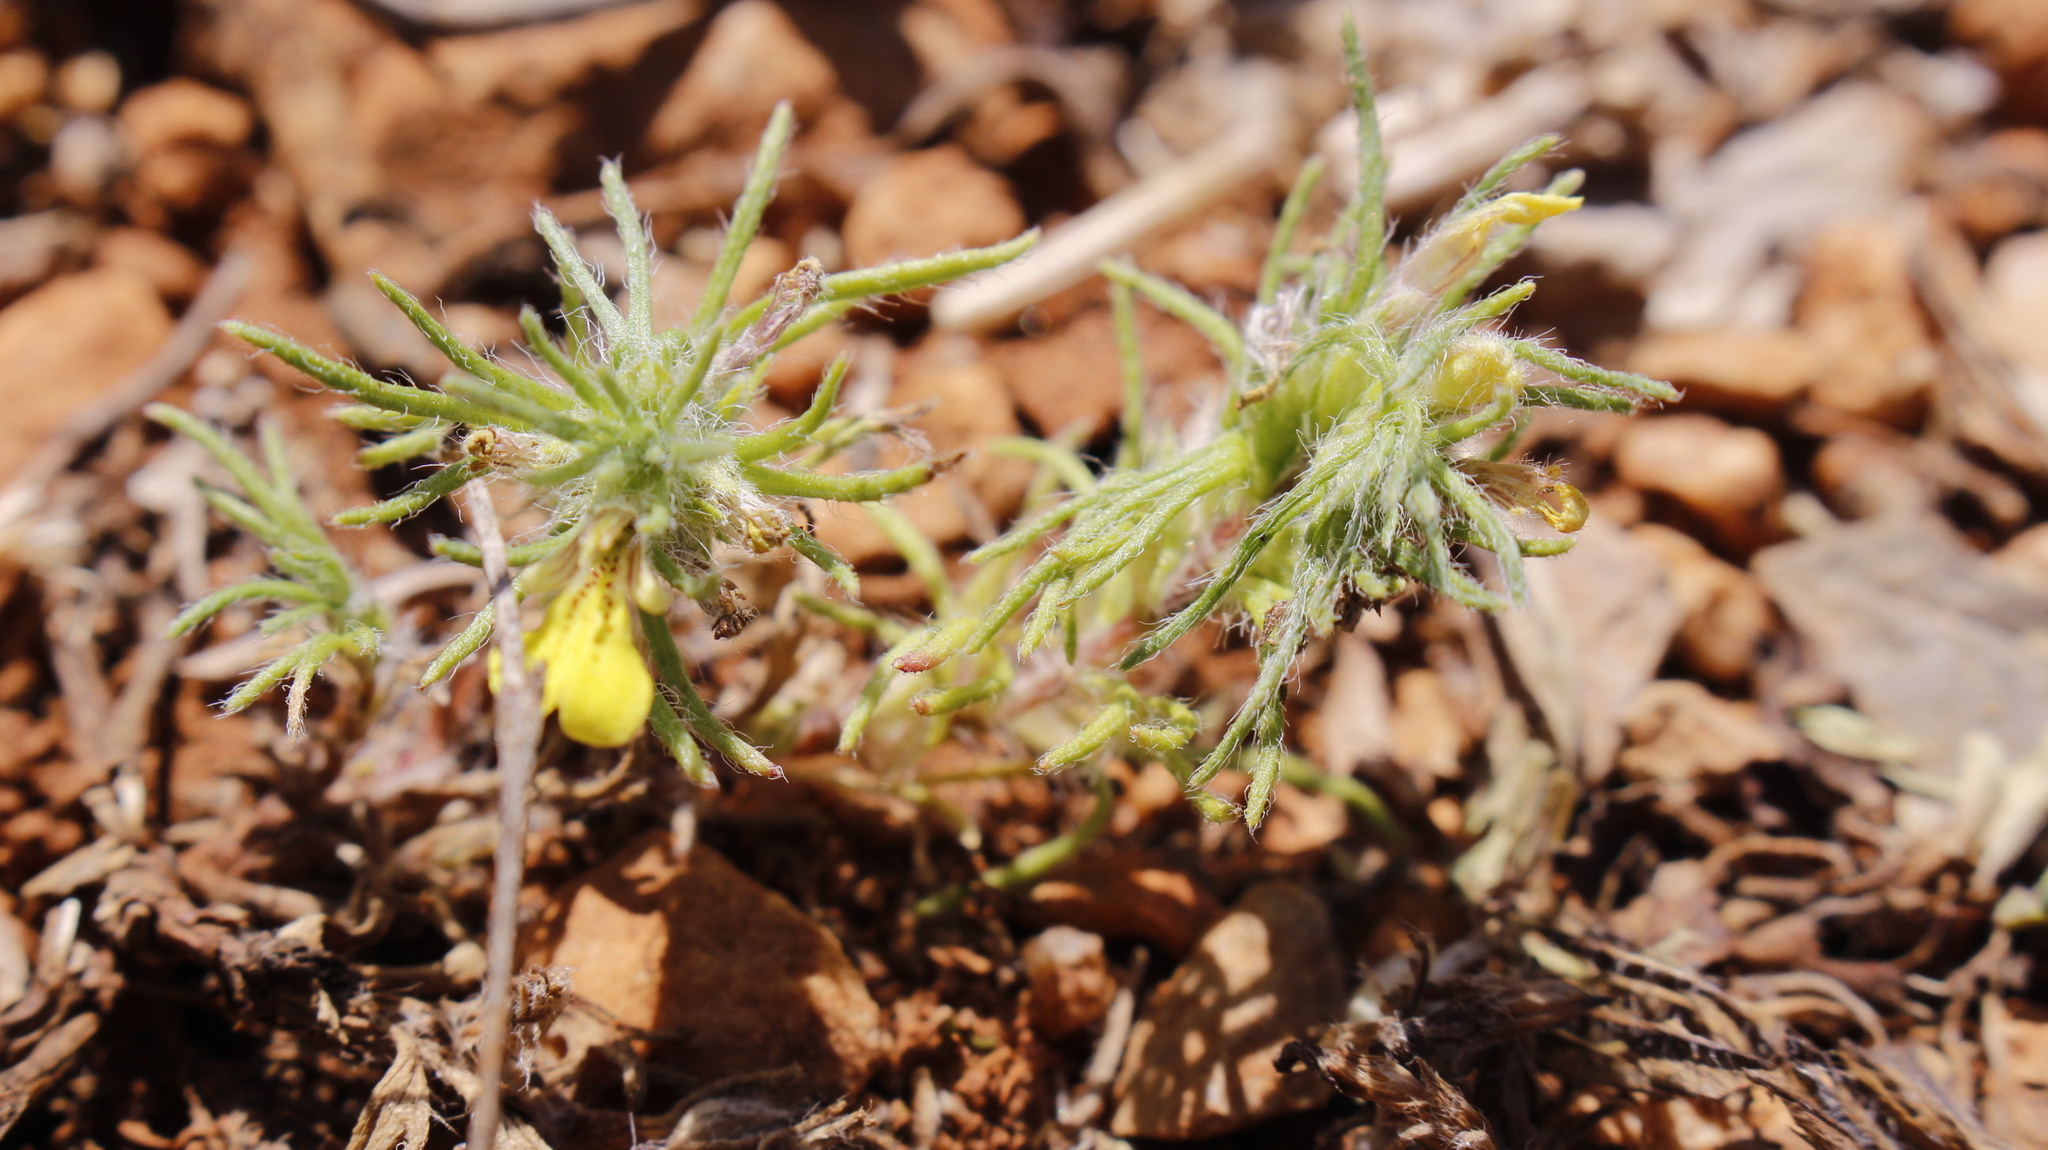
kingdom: Plantae
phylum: Tracheophyta
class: Magnoliopsida
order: Lamiales
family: Lamiaceae
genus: Ajuga
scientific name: Ajuga chamaepitys
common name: Ground-pine
